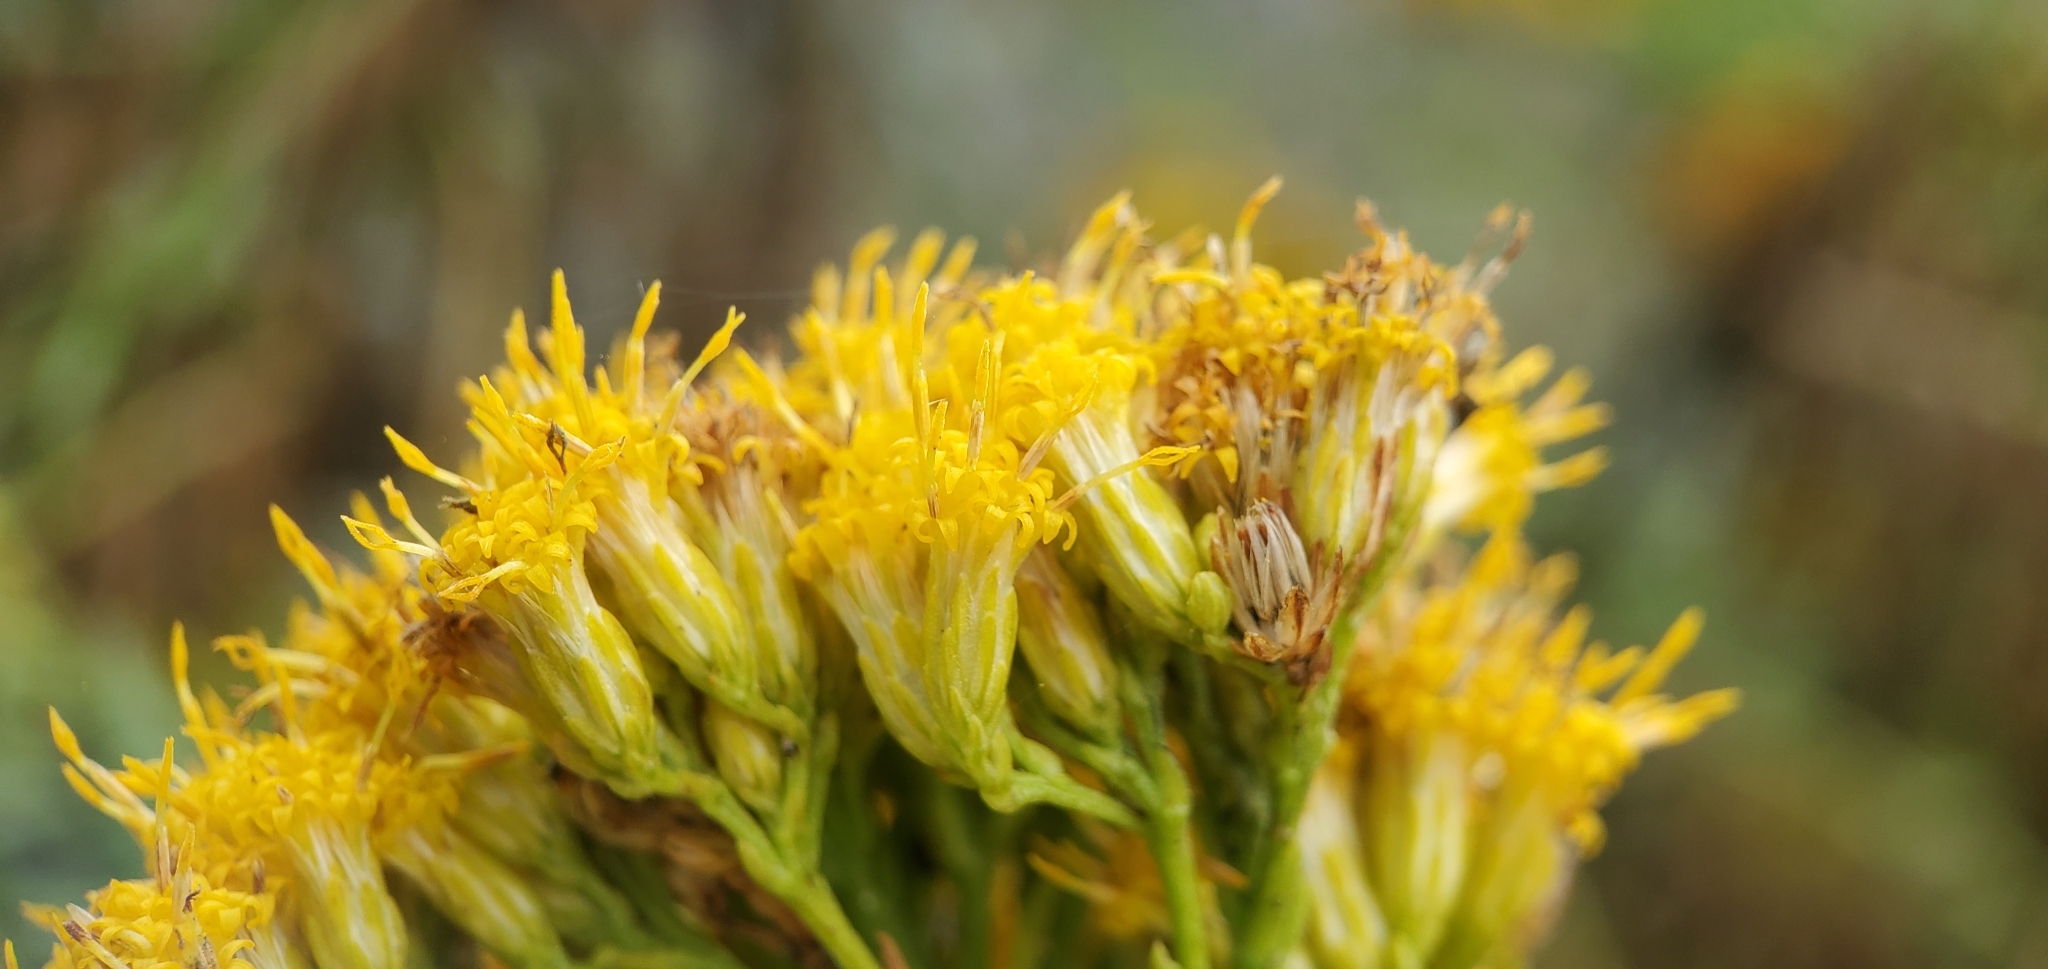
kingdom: Plantae
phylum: Tracheophyta
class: Magnoliopsida
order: Asterales
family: Asteraceae
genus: Ericameria
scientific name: Ericameria parishii
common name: Parish's goldenbush
